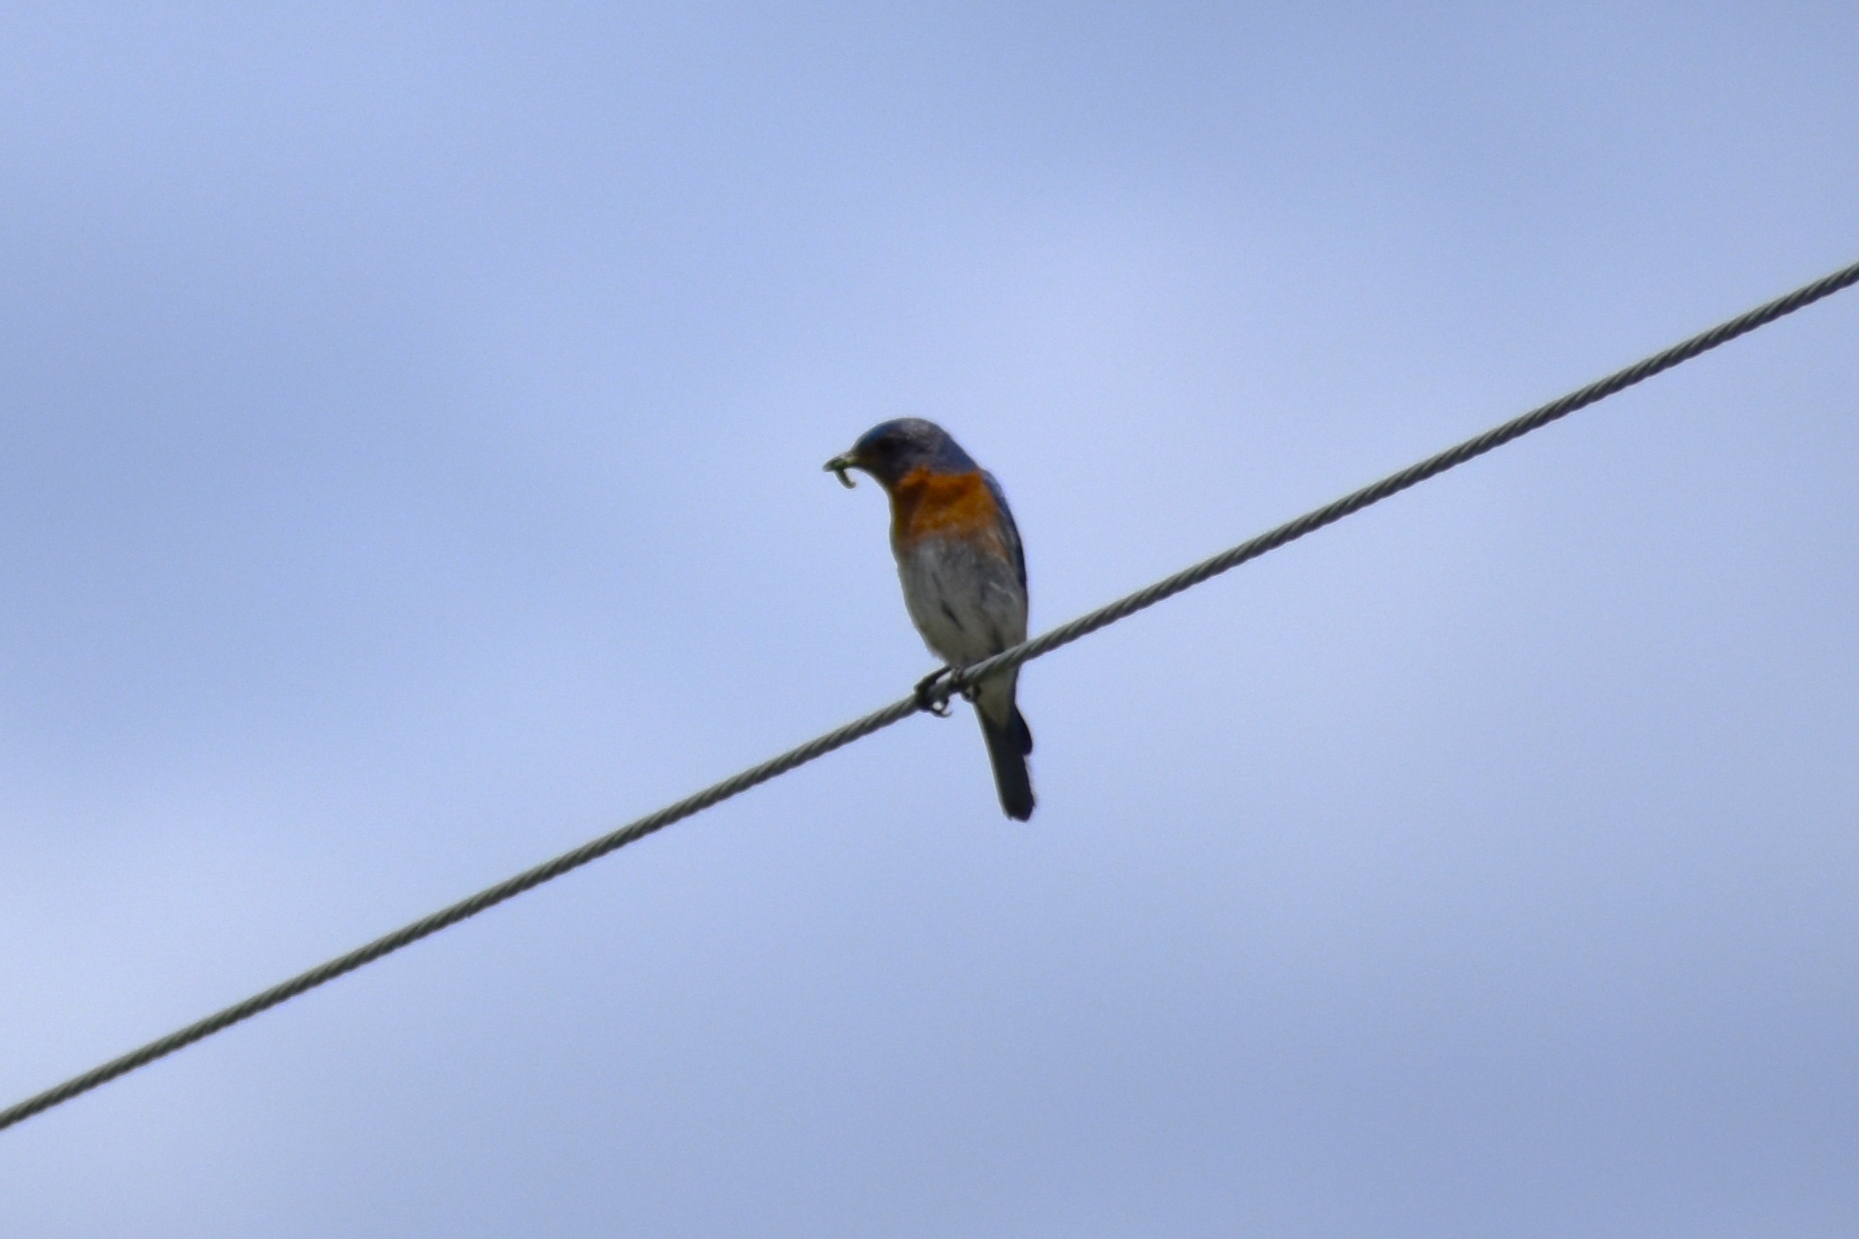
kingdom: Animalia
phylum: Chordata
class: Aves
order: Passeriformes
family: Turdidae
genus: Sialia
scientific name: Sialia sialis
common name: Eastern bluebird
